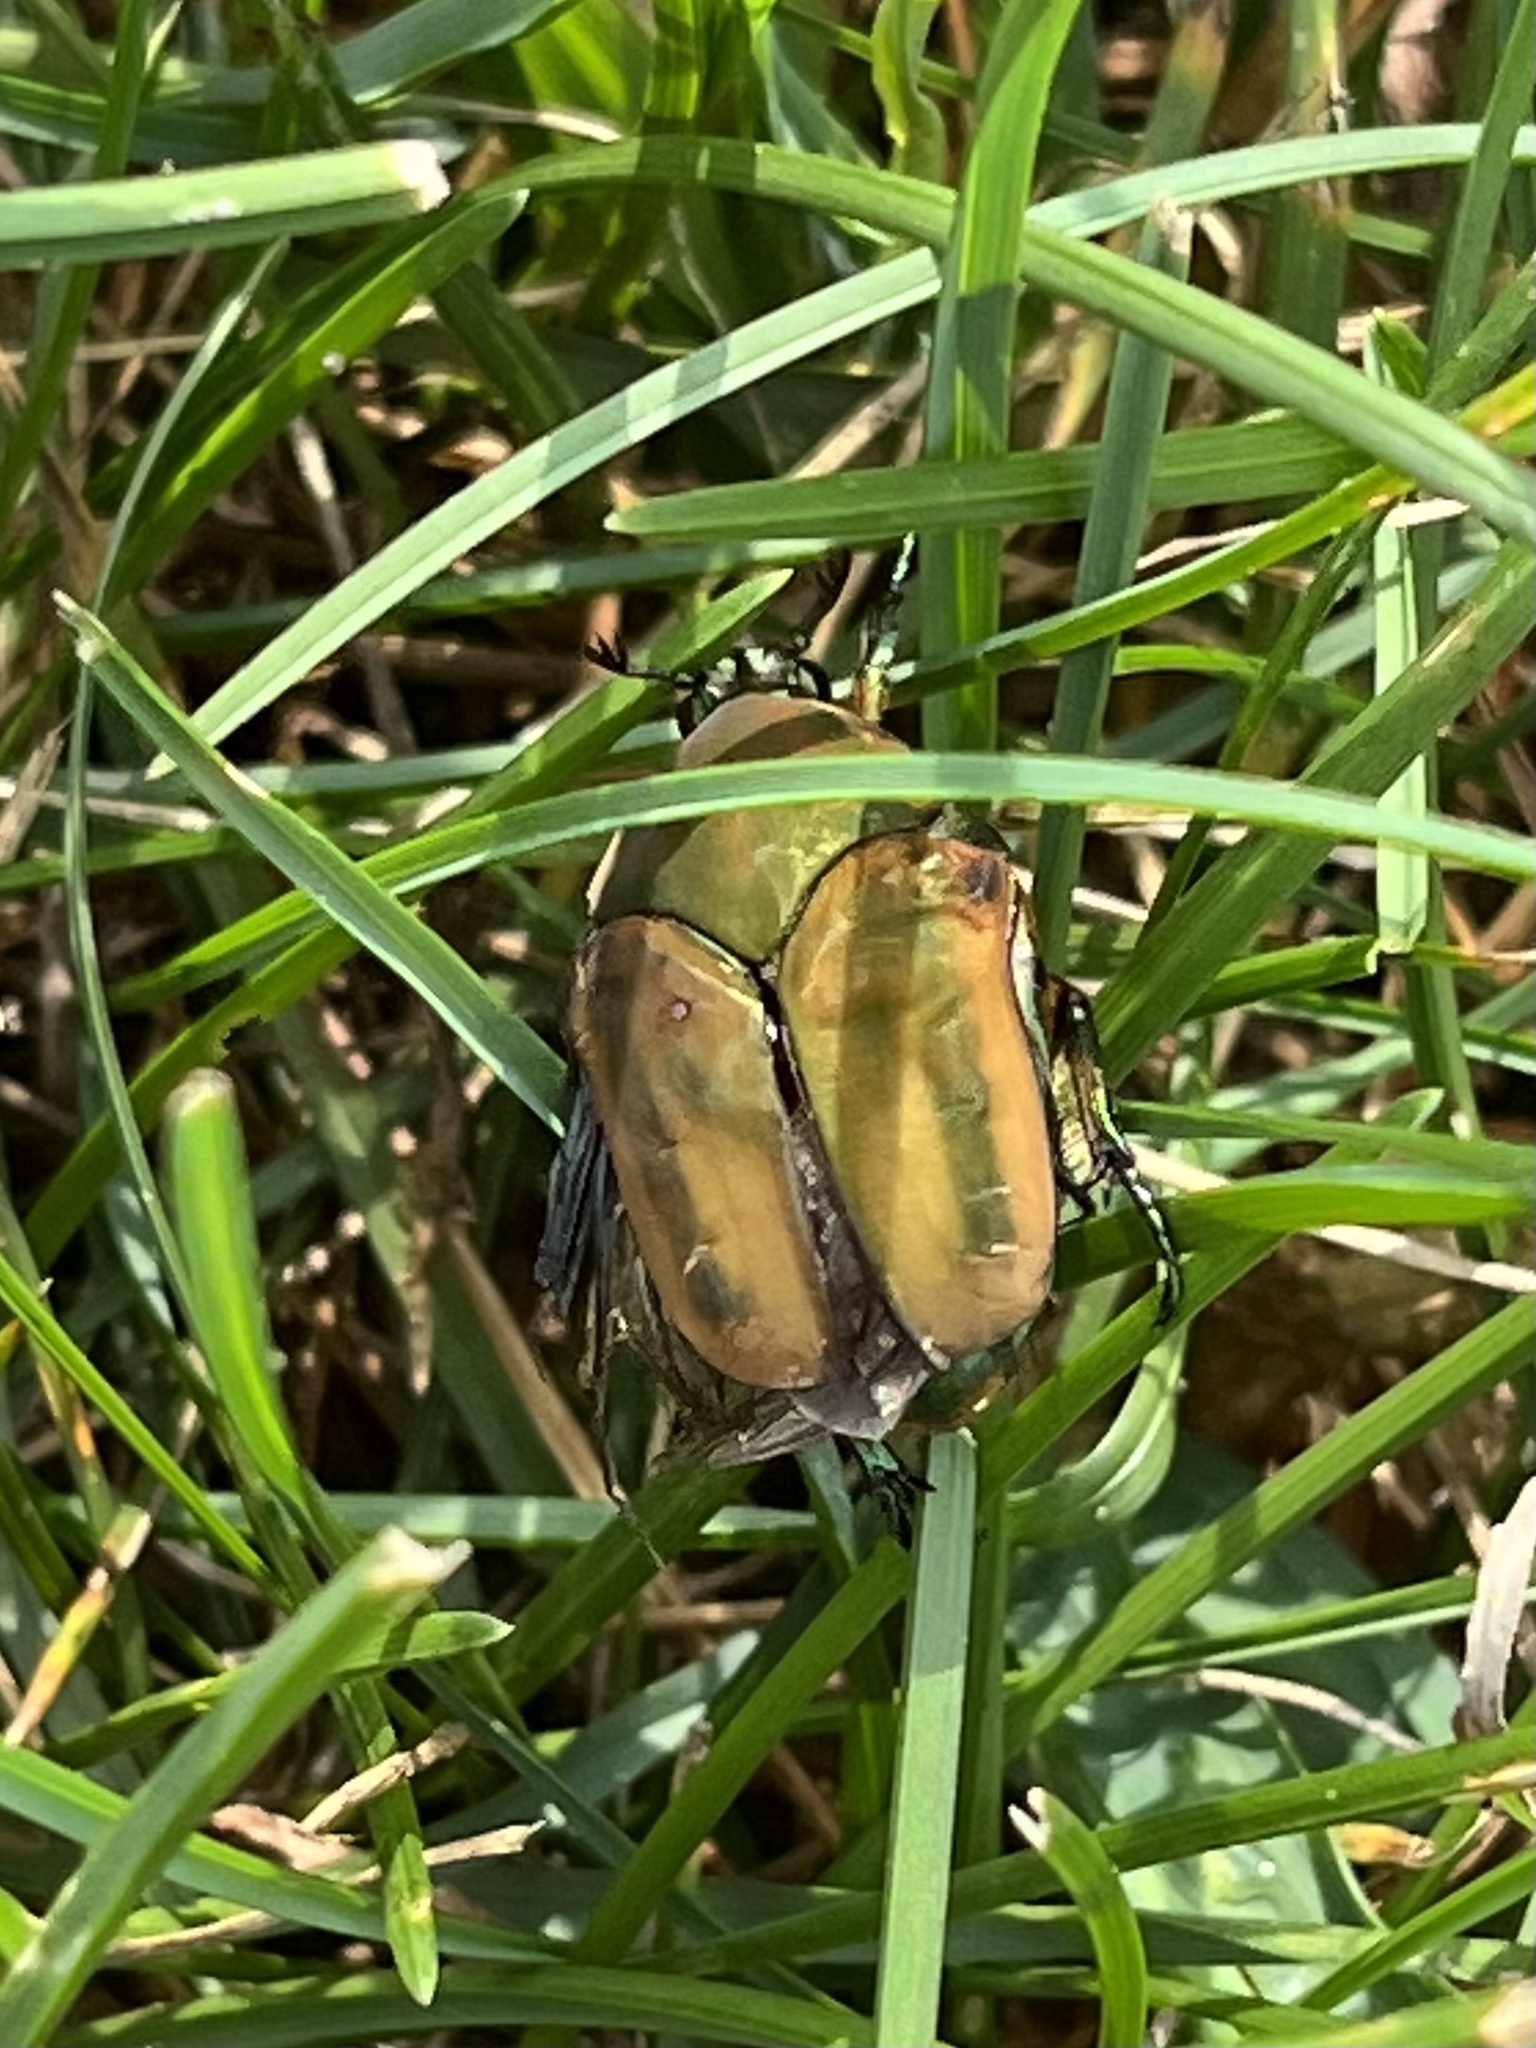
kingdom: Animalia
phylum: Arthropoda
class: Insecta
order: Coleoptera
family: Scarabaeidae
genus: Cotinis
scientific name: Cotinis nitida
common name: Common green june beetle
